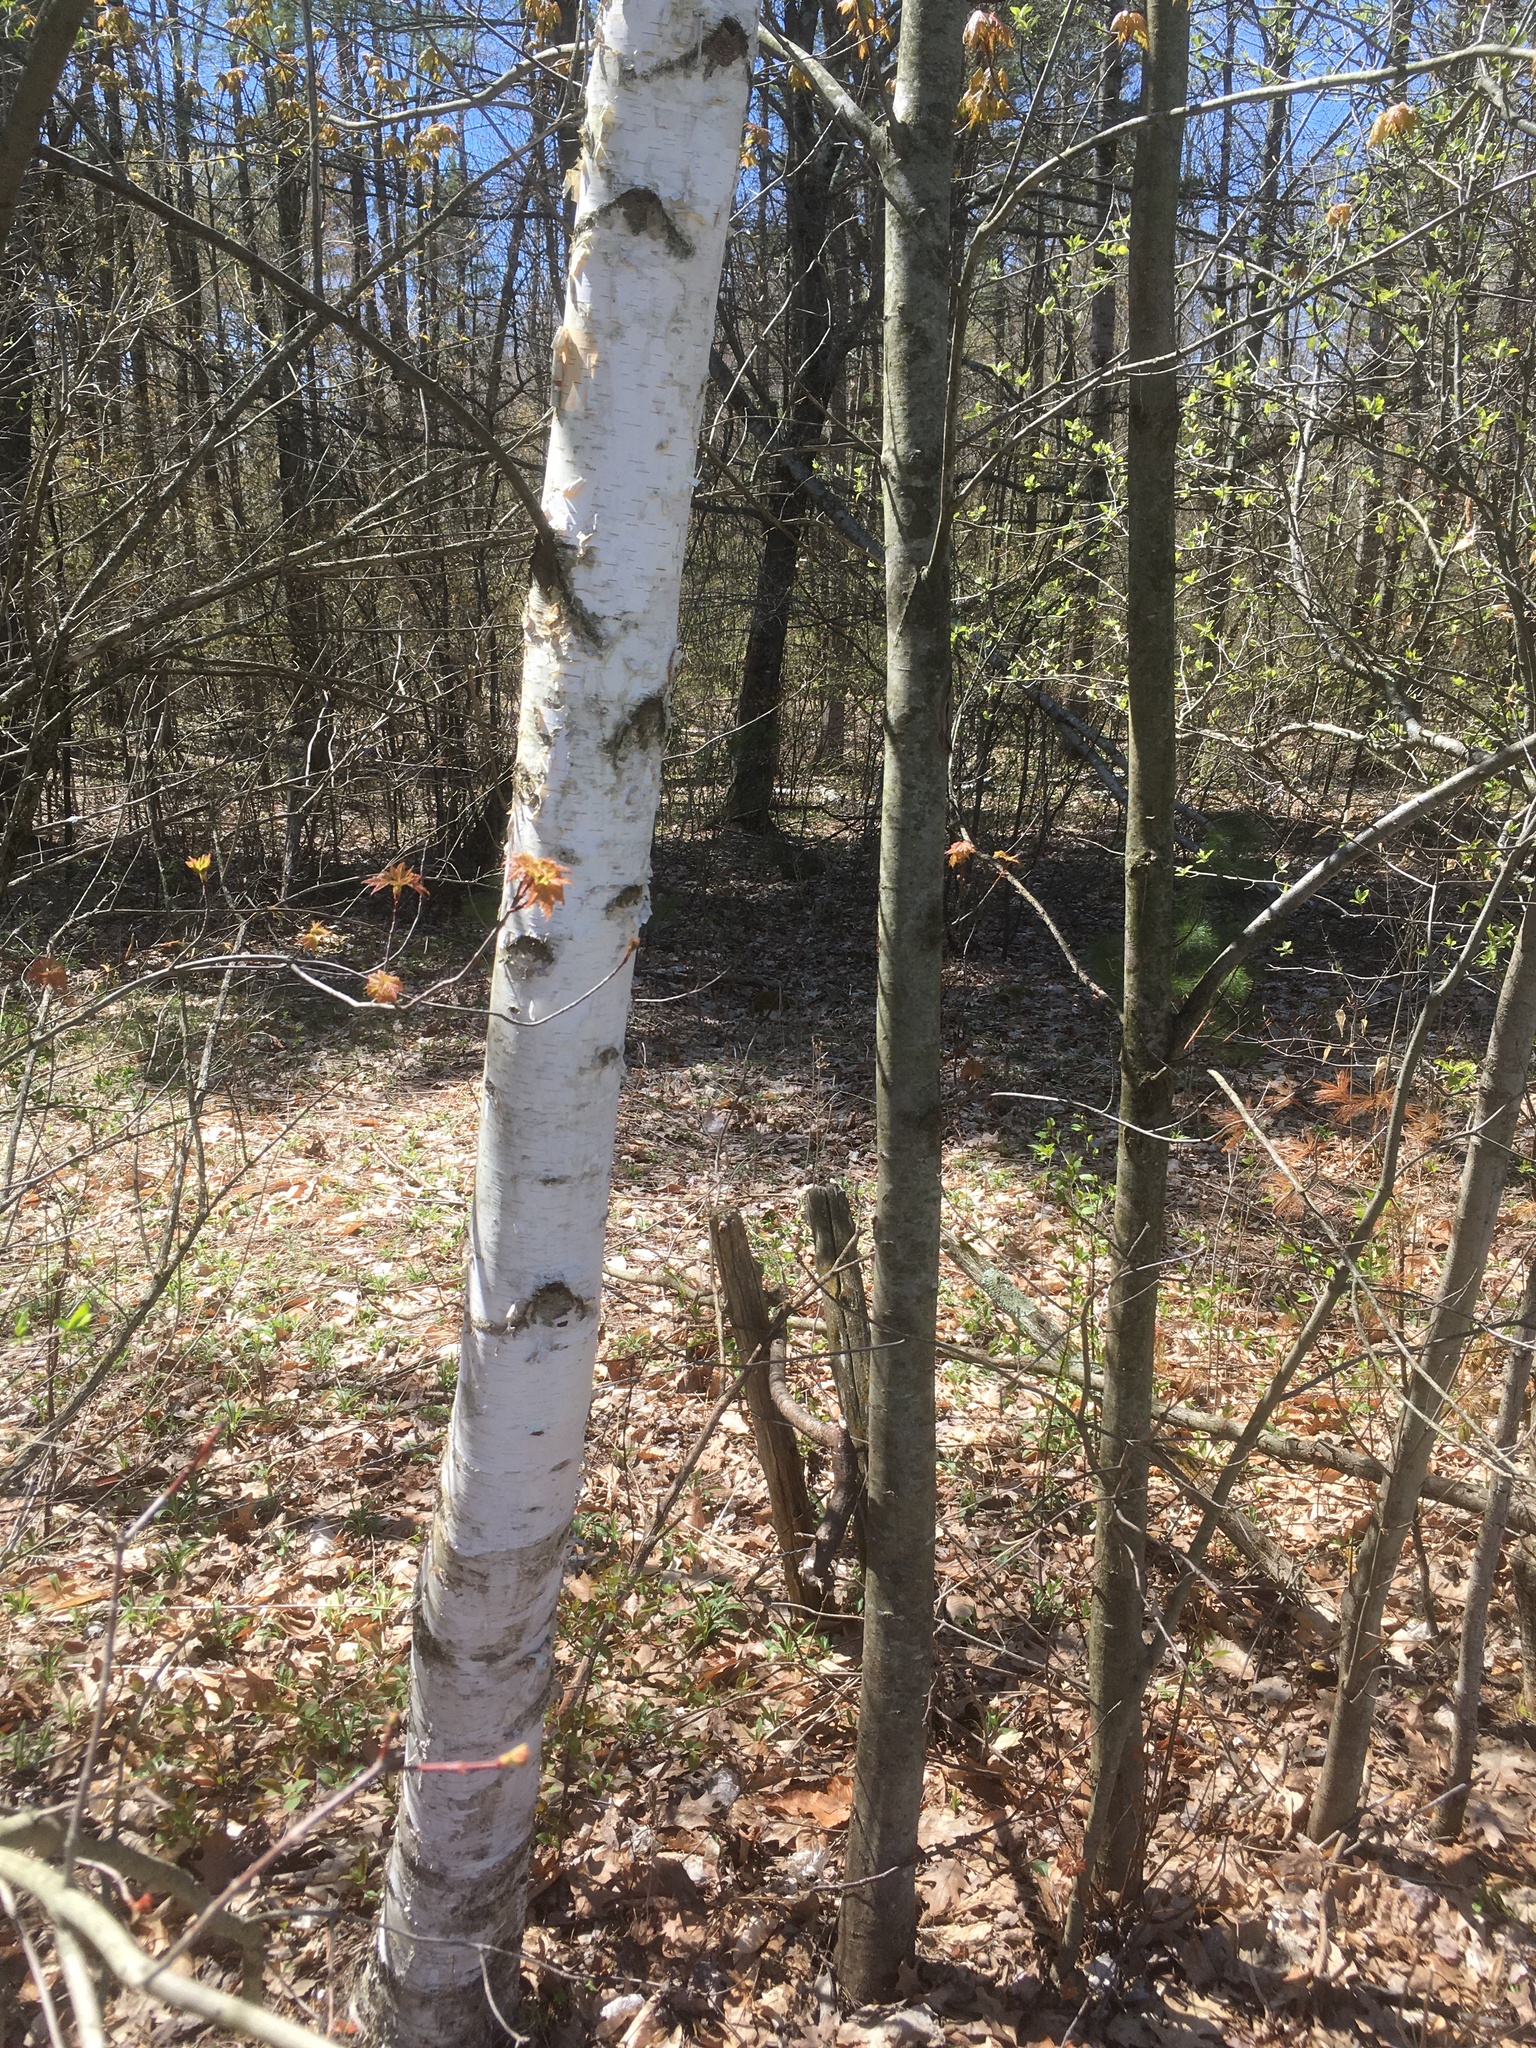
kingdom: Plantae
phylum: Tracheophyta
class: Magnoliopsida
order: Fagales
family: Betulaceae
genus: Betula
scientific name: Betula papyrifera
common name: Paper birch
